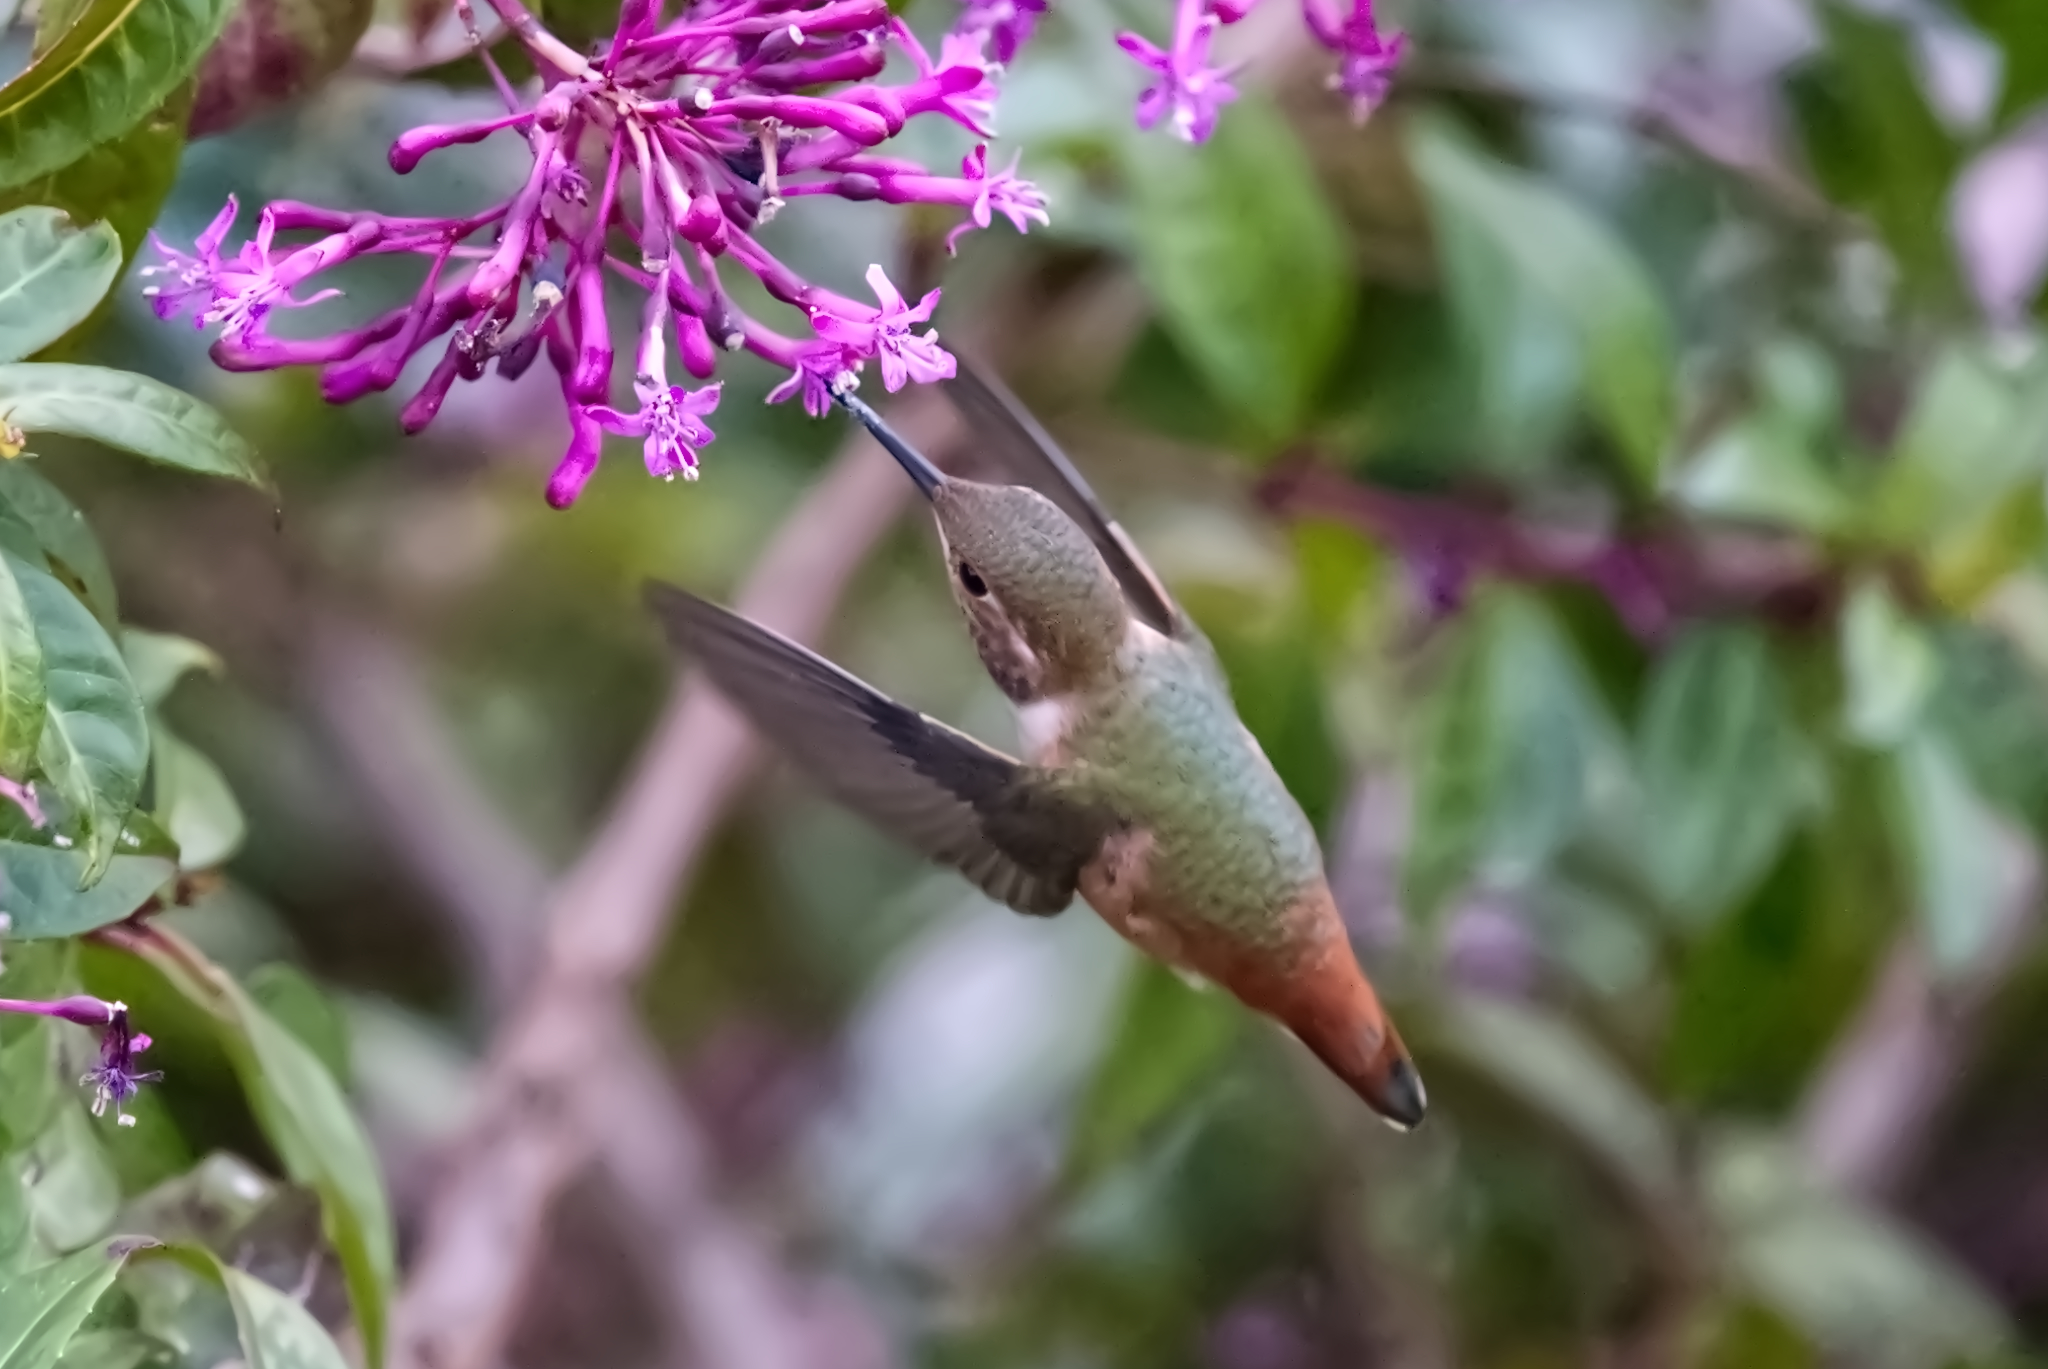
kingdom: Animalia
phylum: Chordata
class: Aves
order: Apodiformes
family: Trochilidae
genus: Selasphorus
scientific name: Selasphorus sasin
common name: Allen's hummingbird
